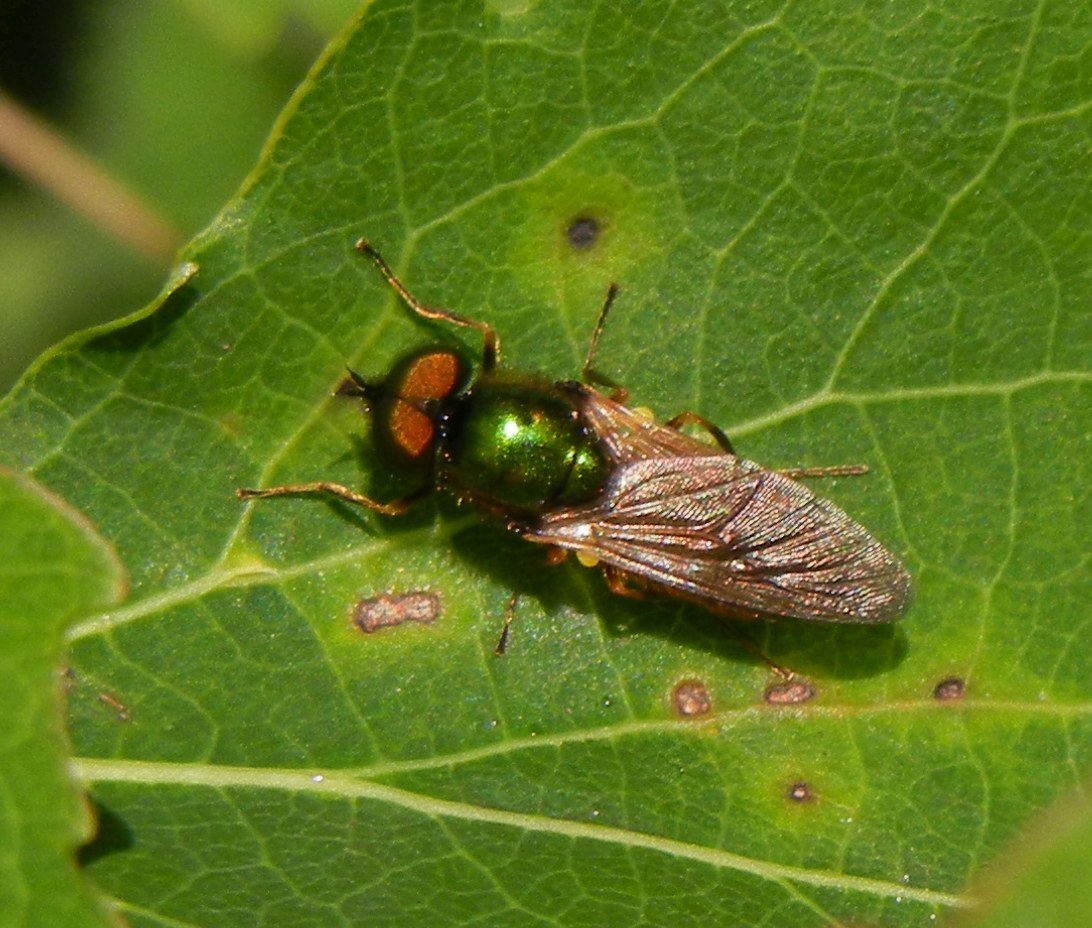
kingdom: Animalia
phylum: Arthropoda
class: Insecta
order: Diptera
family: Stratiomyidae
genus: Chloromyia
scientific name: Chloromyia formosa
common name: Soldier fly
